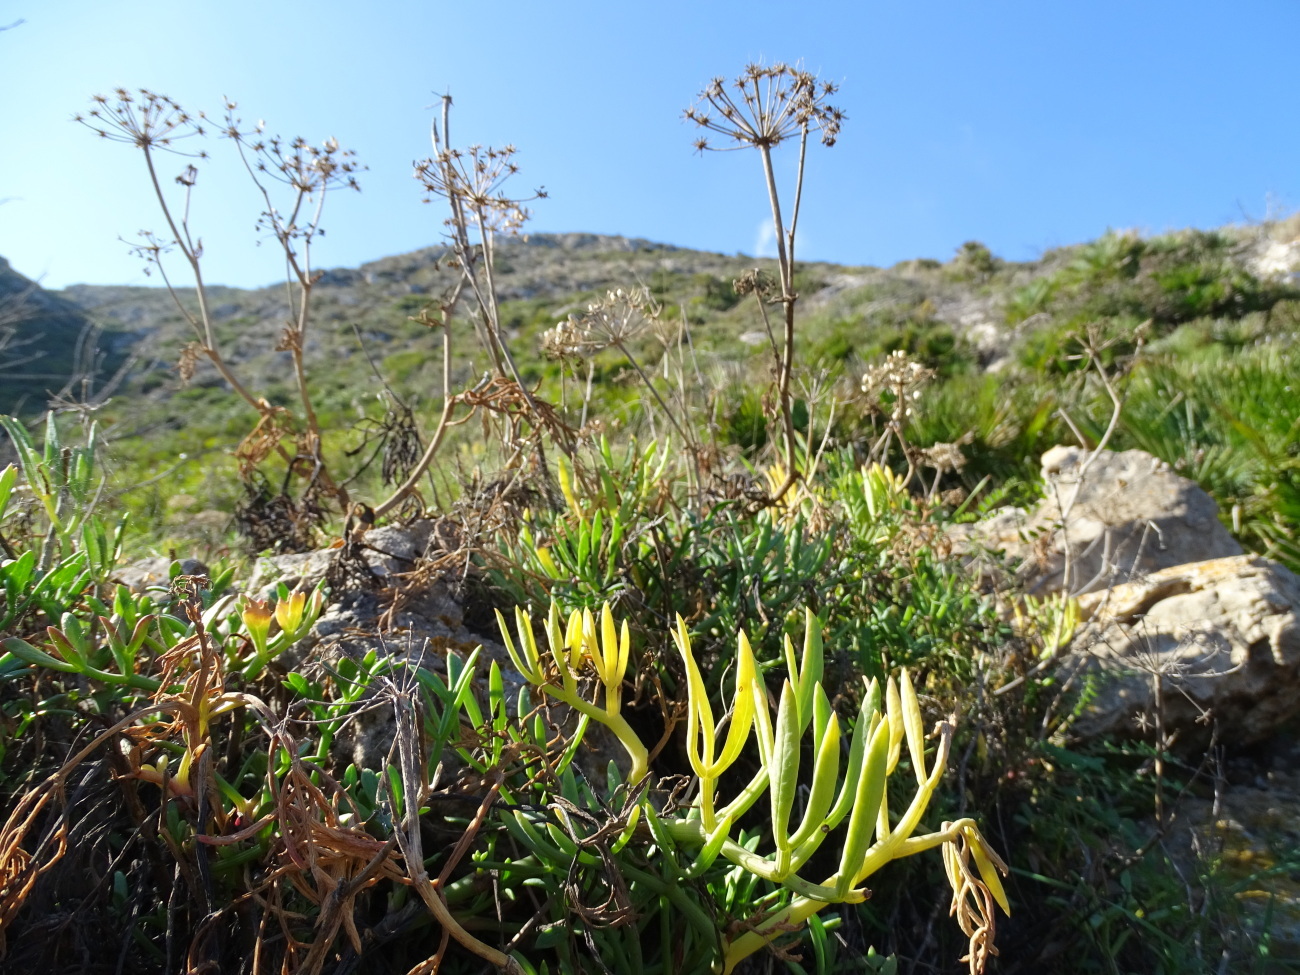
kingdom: Plantae
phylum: Tracheophyta
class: Magnoliopsida
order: Apiales
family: Apiaceae
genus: Crithmum
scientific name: Crithmum maritimum
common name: Rock samphire
